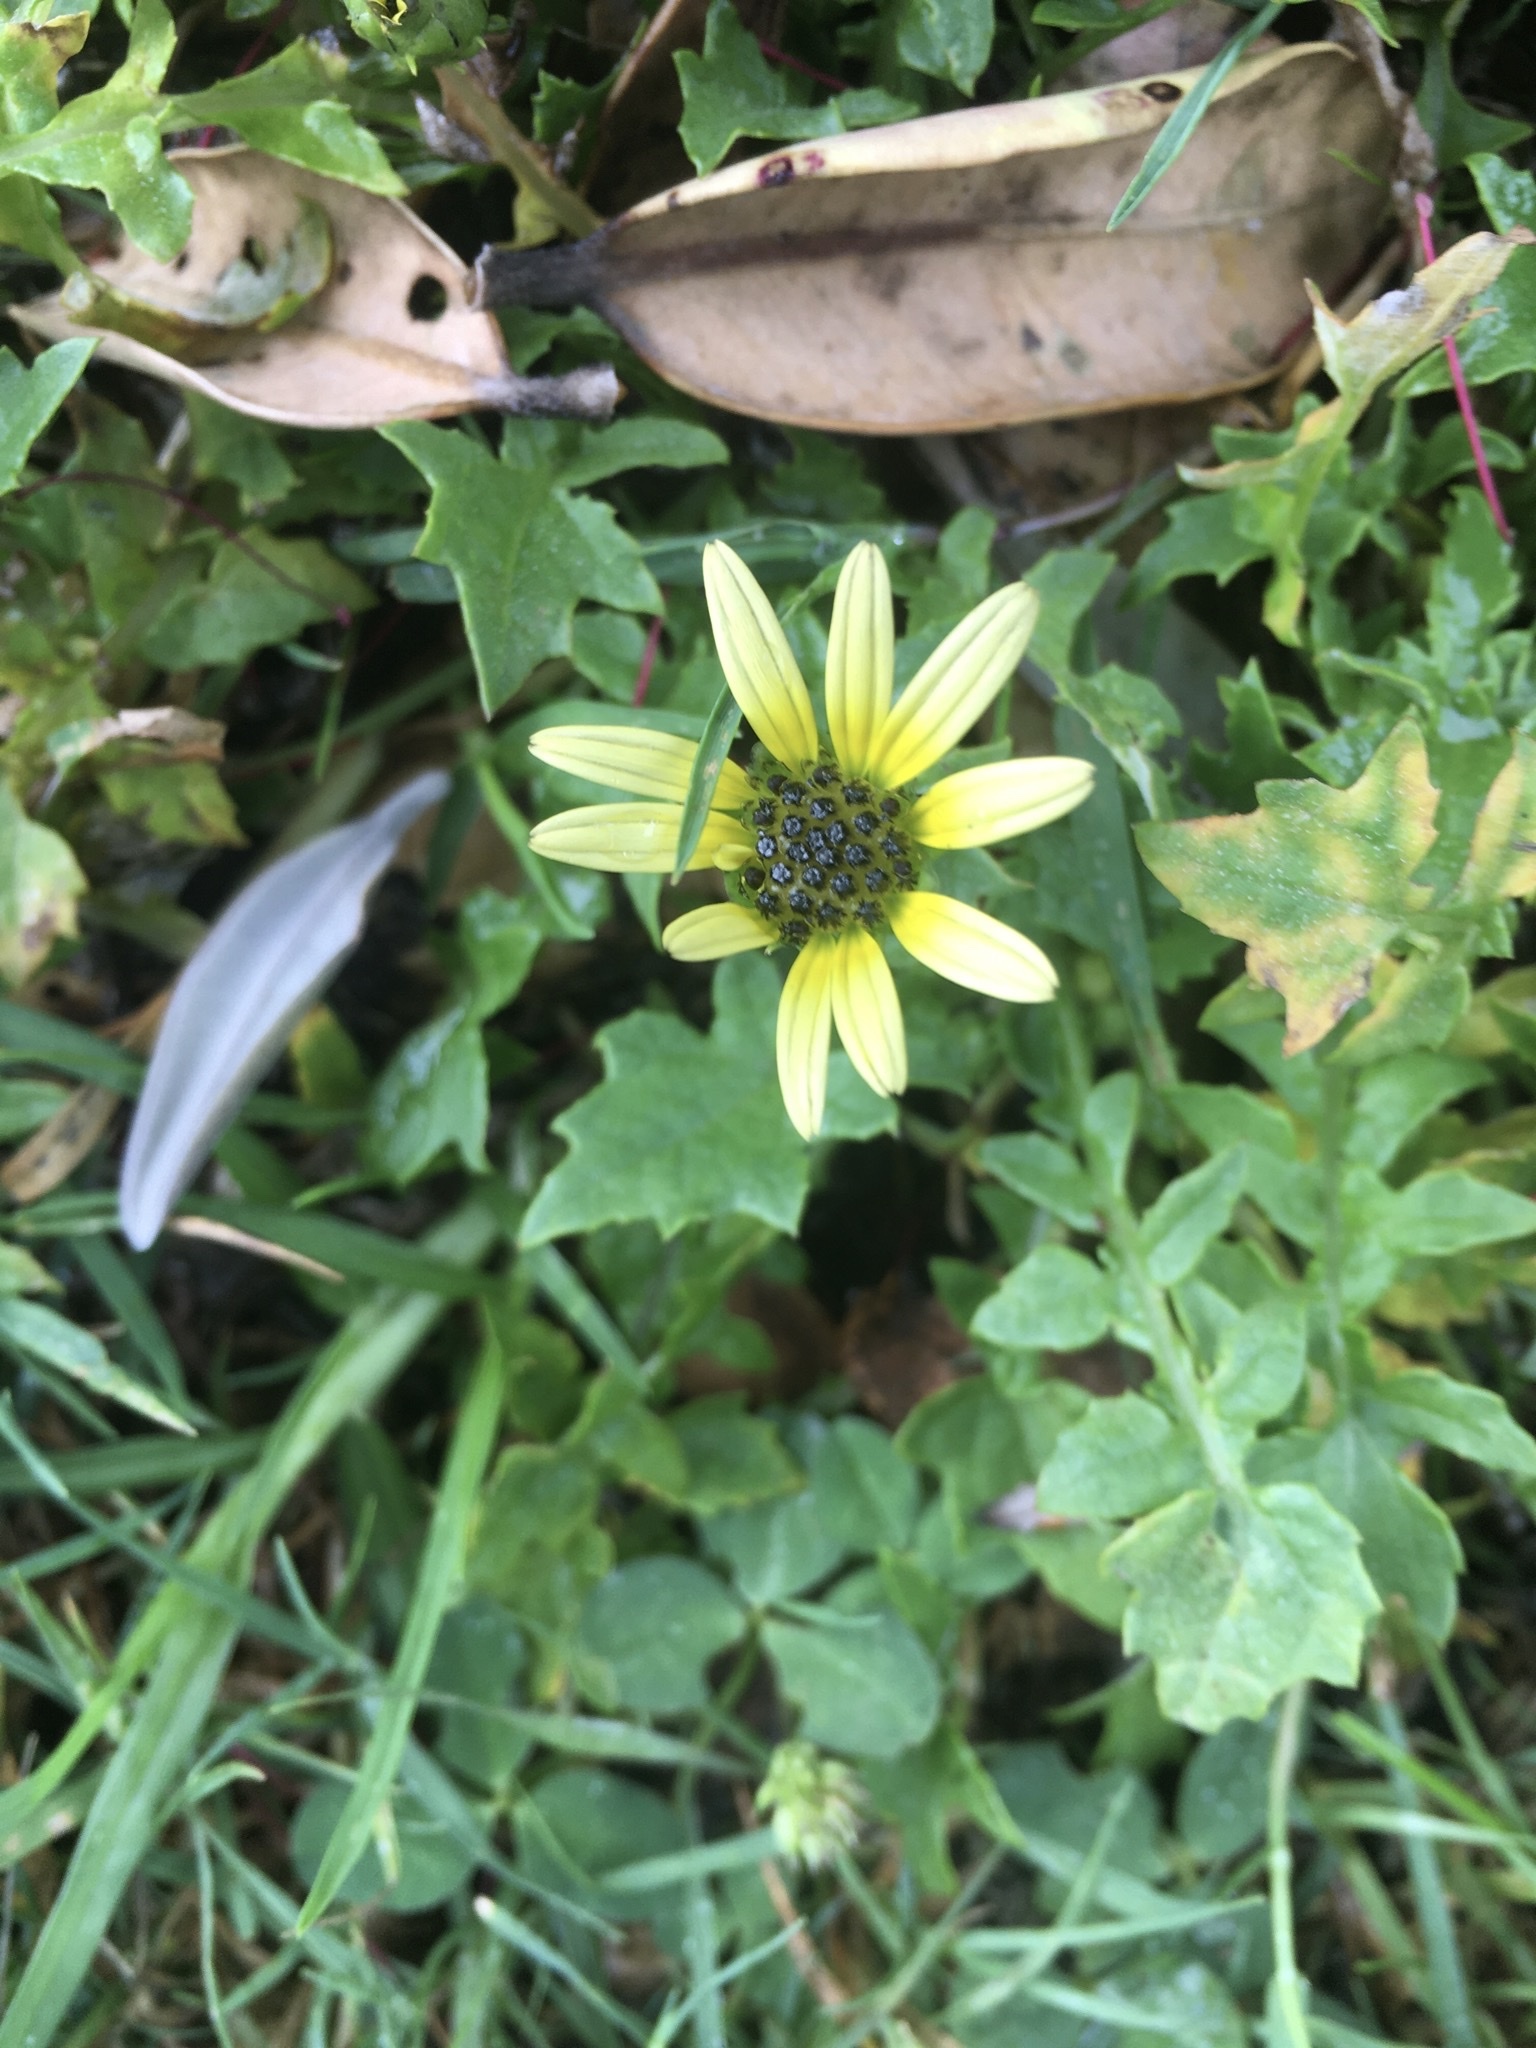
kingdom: Plantae
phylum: Tracheophyta
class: Magnoliopsida
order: Asterales
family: Asteraceae
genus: Arctotheca
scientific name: Arctotheca calendula
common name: Capeweed
